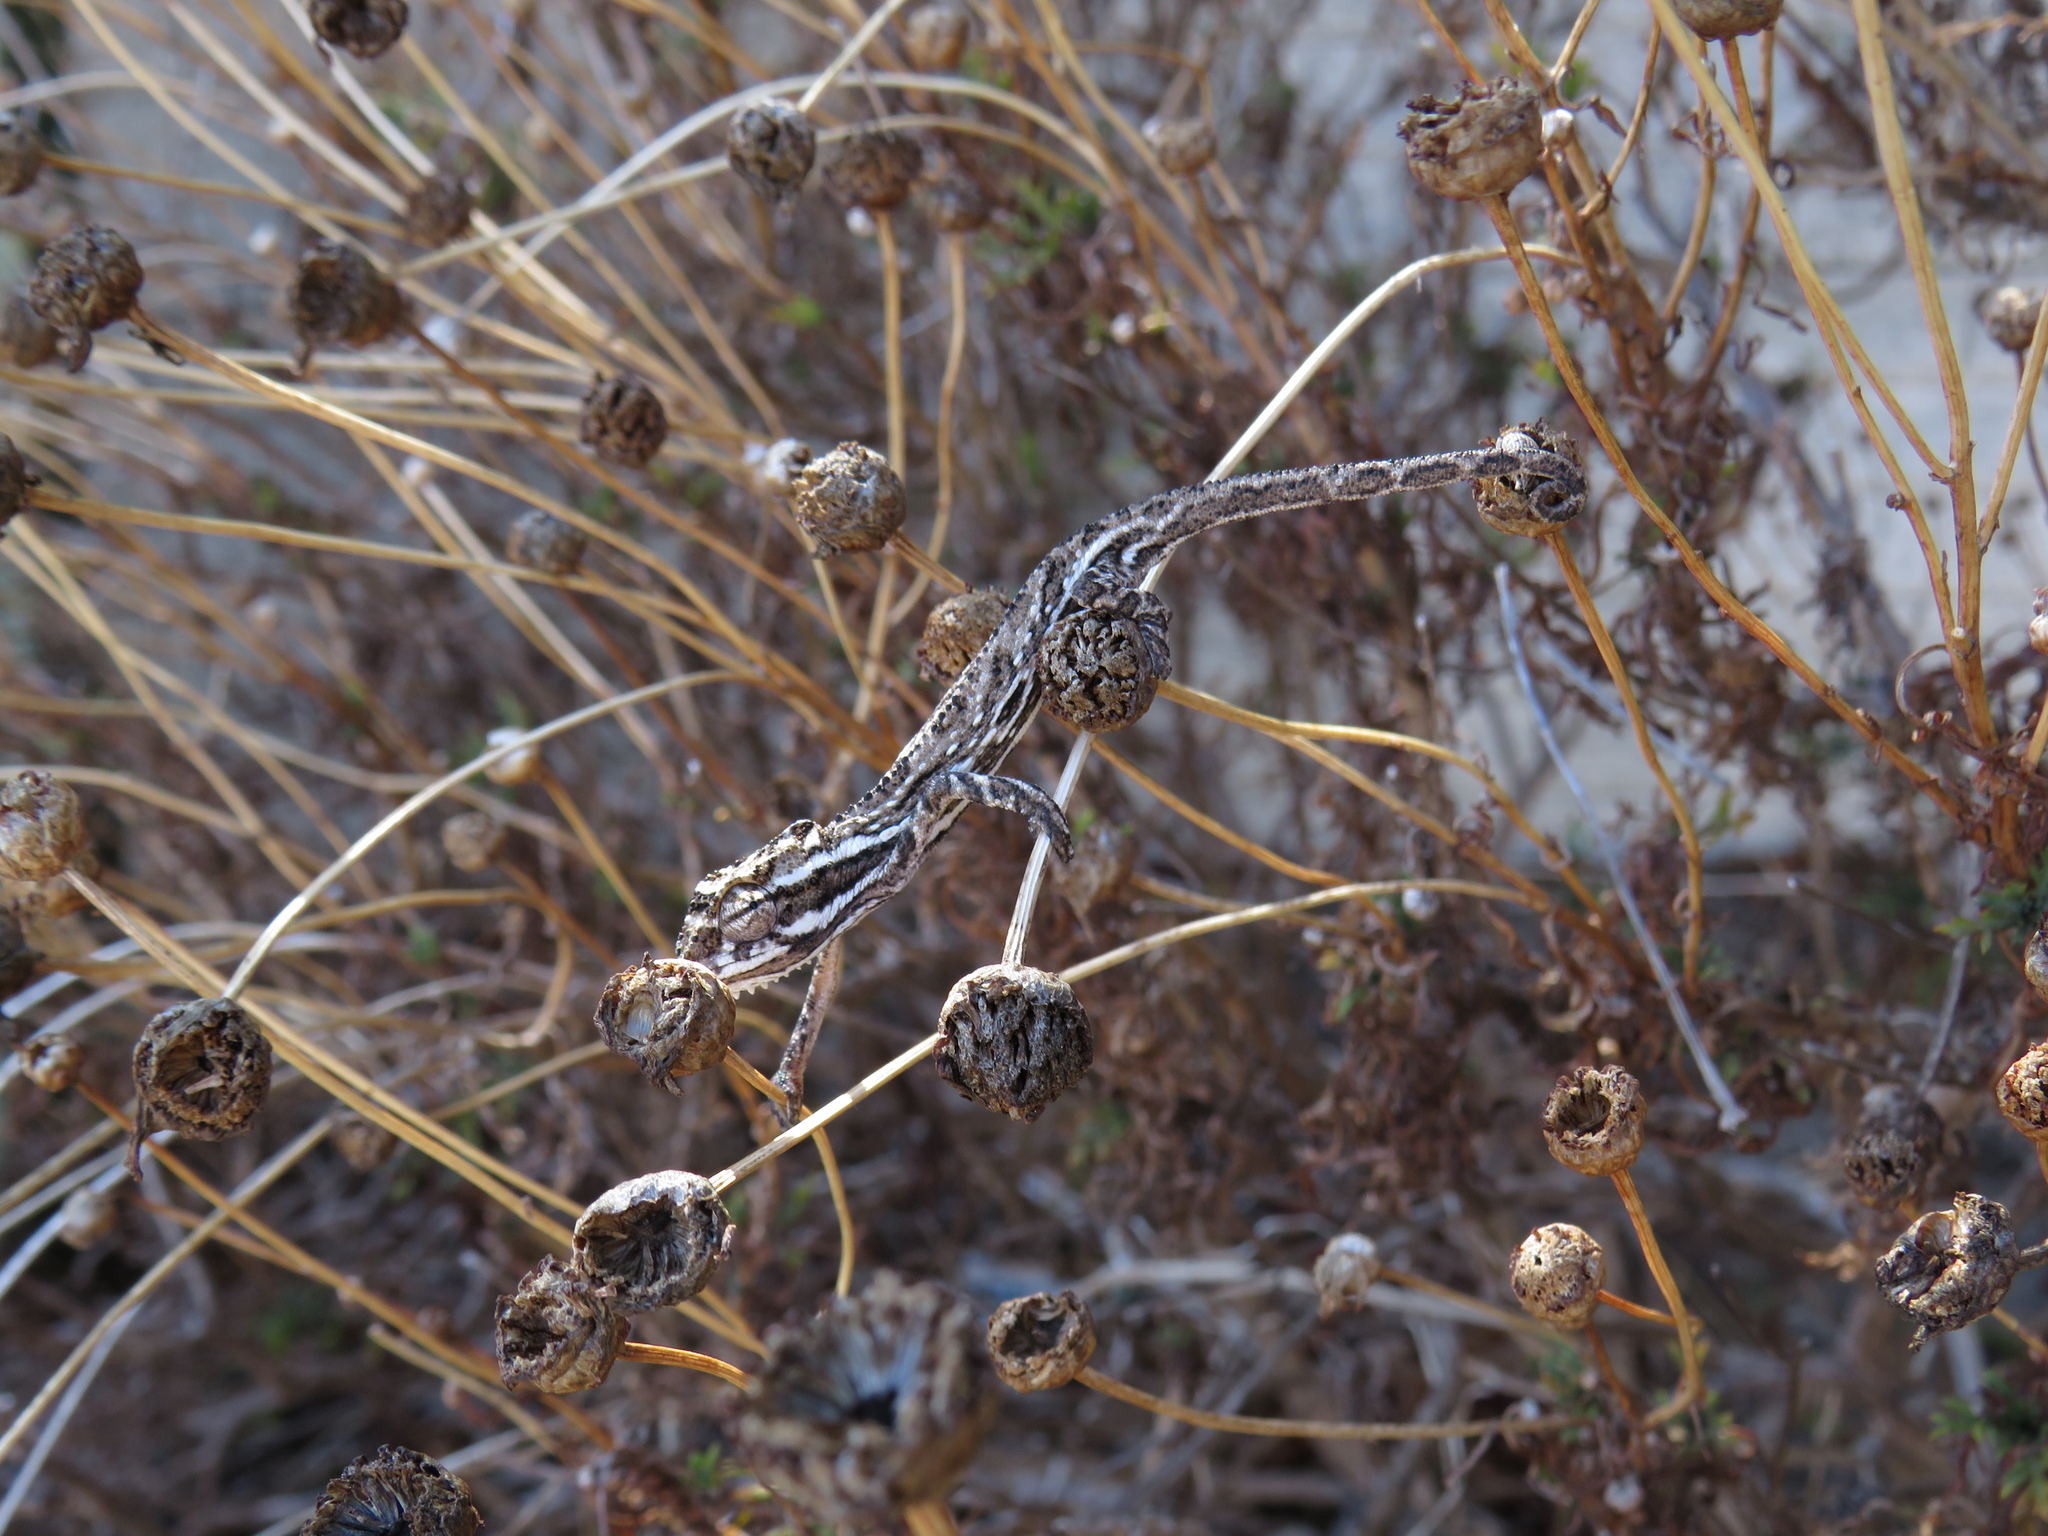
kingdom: Animalia
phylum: Chordata
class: Squamata
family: Chamaeleonidae
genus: Bradypodion
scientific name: Bradypodion pumilum
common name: Cape dwarf chameleon
